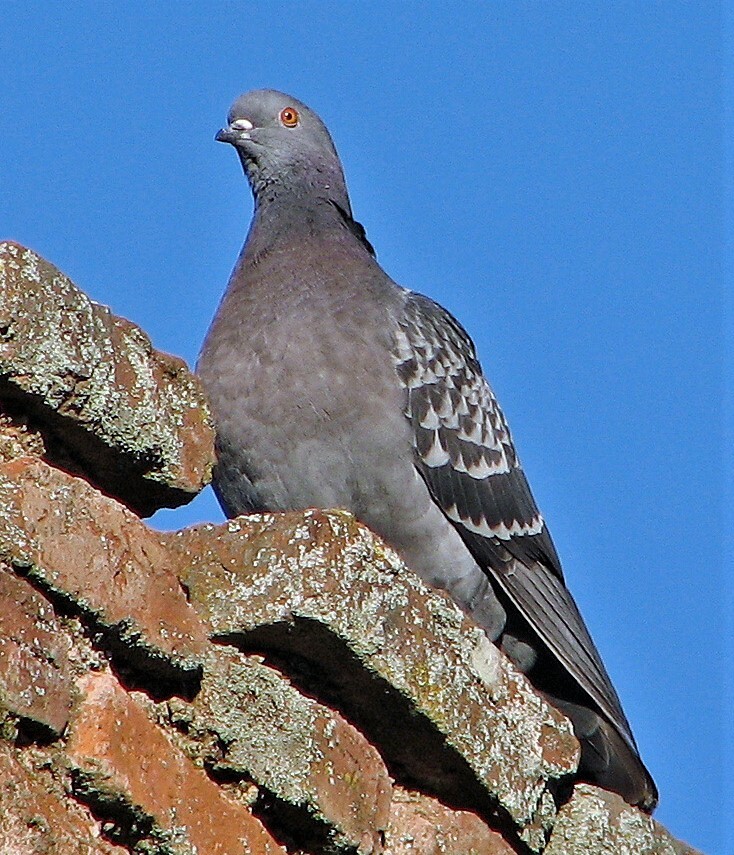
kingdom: Animalia
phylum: Chordata
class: Aves
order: Columbiformes
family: Columbidae
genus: Columba
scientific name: Columba livia
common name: Rock pigeon
